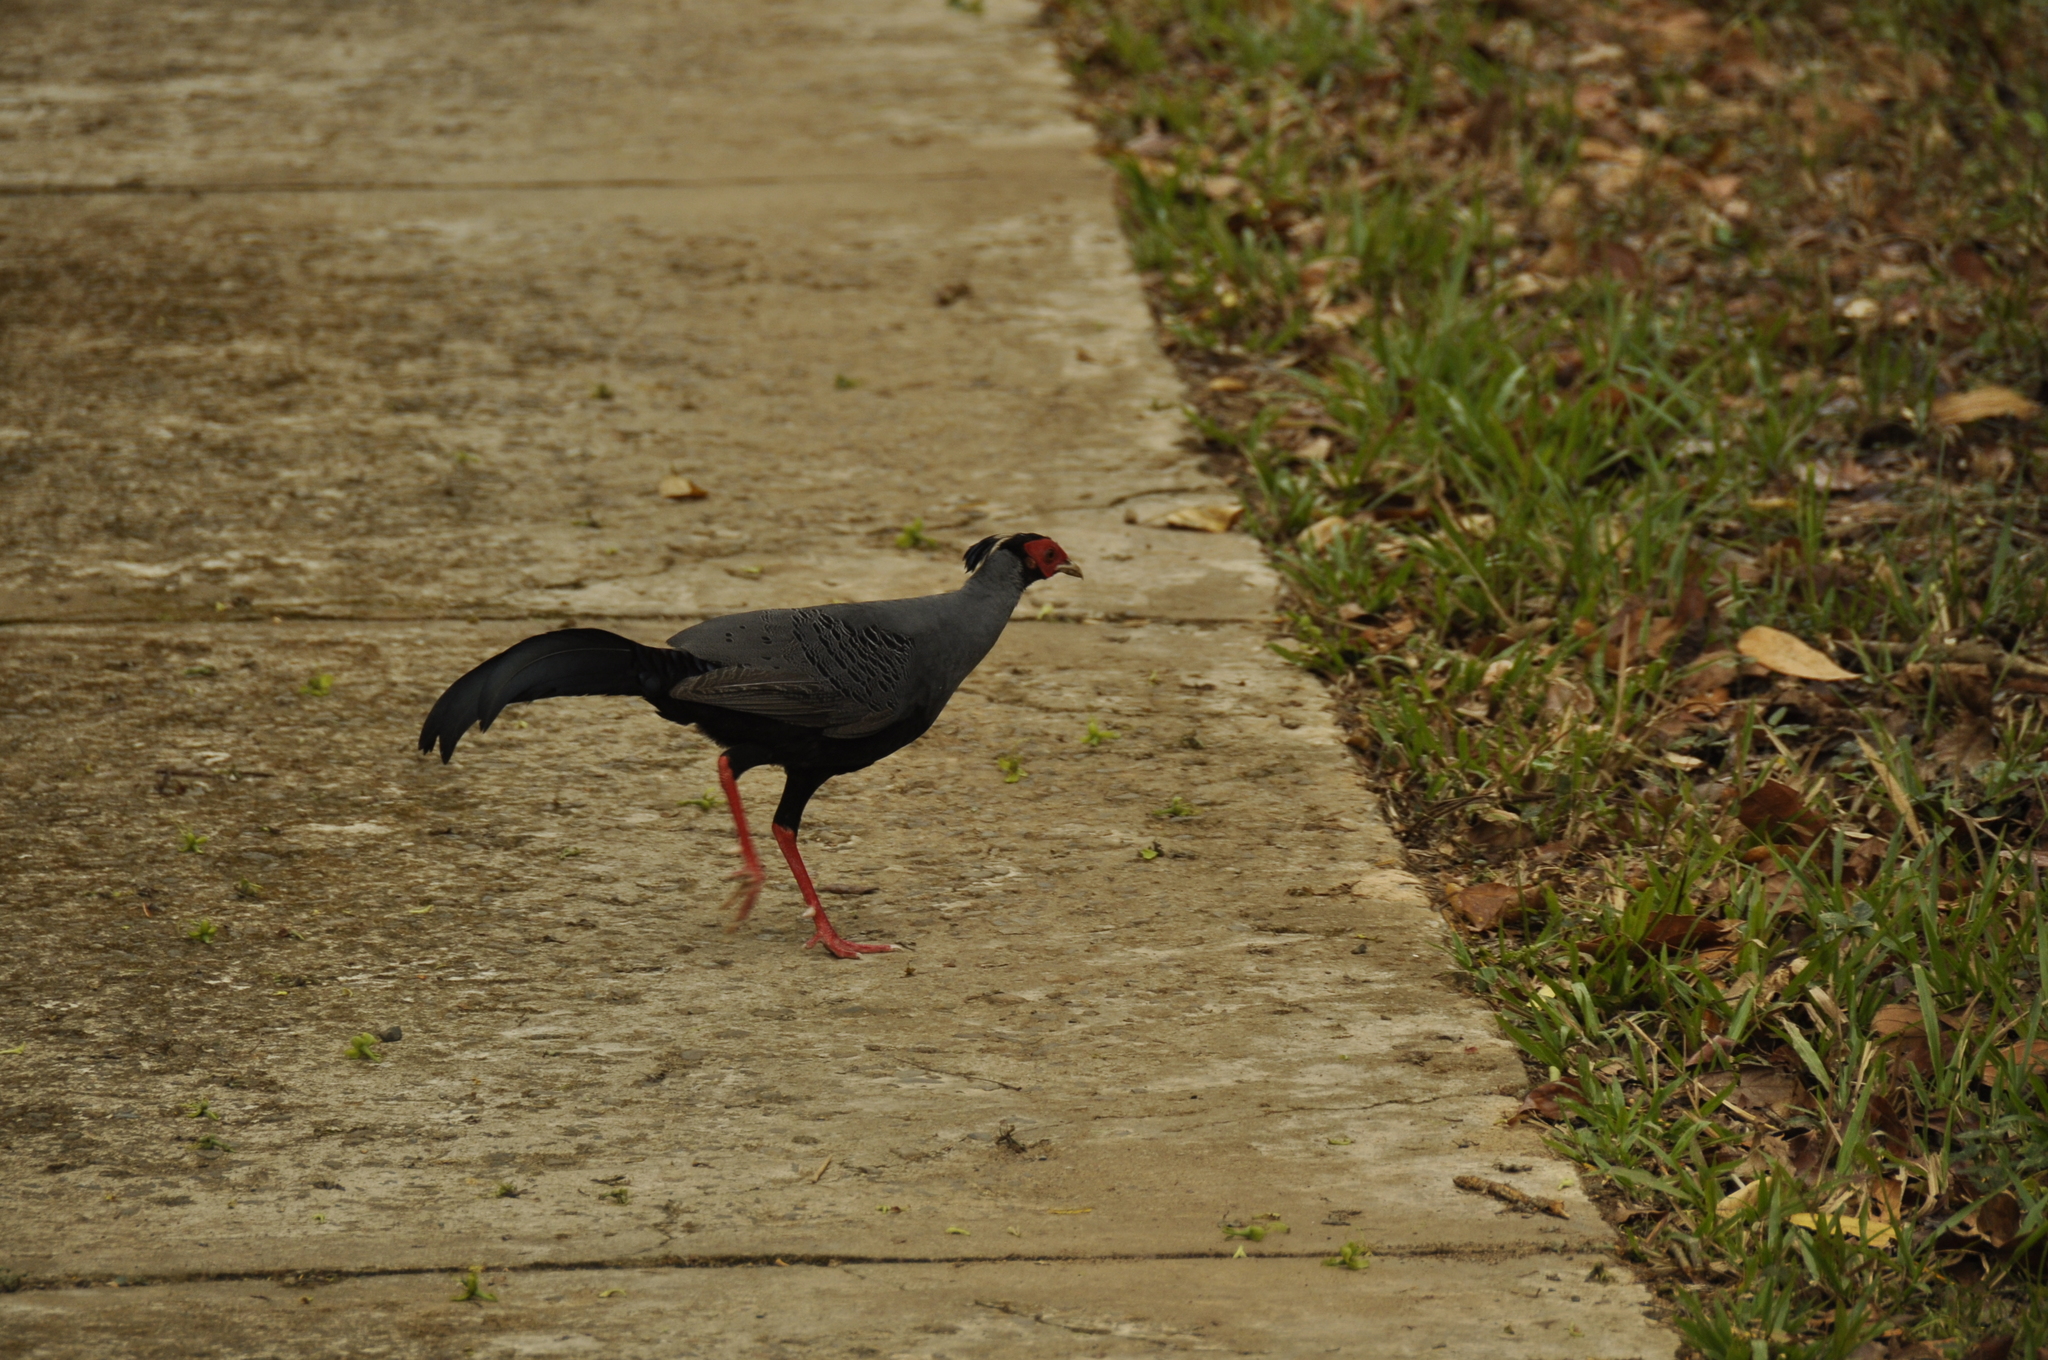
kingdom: Animalia
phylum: Chordata
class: Aves
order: Galliformes
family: Phasianidae
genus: Lophura
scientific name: Lophura diardi
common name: Siamese fireback
